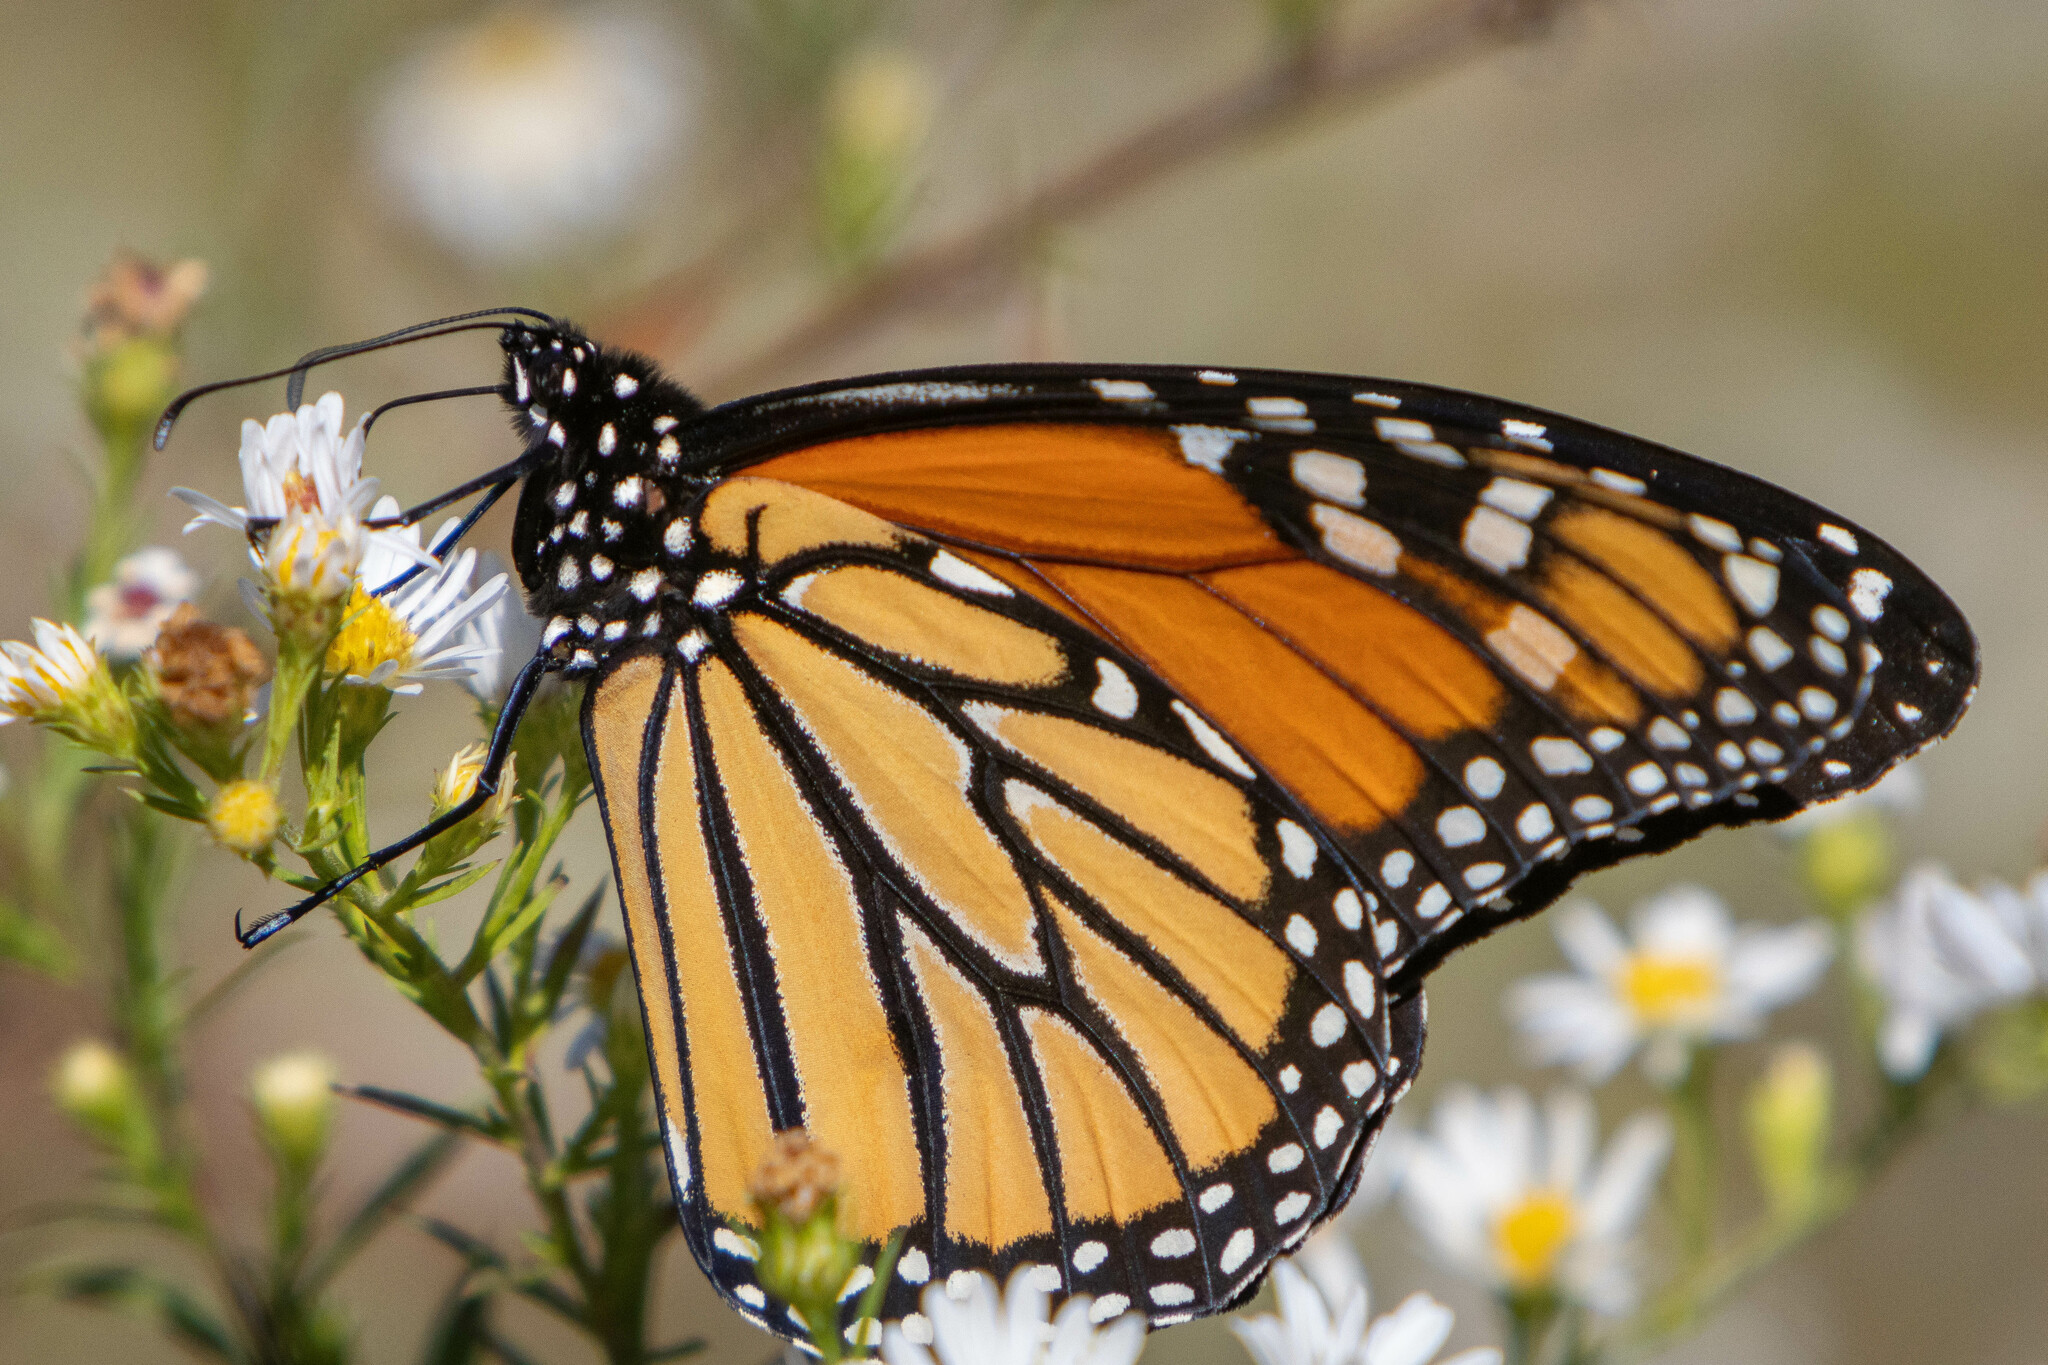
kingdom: Animalia
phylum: Arthropoda
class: Insecta
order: Lepidoptera
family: Nymphalidae
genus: Danaus
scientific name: Danaus plexippus
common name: Monarch
